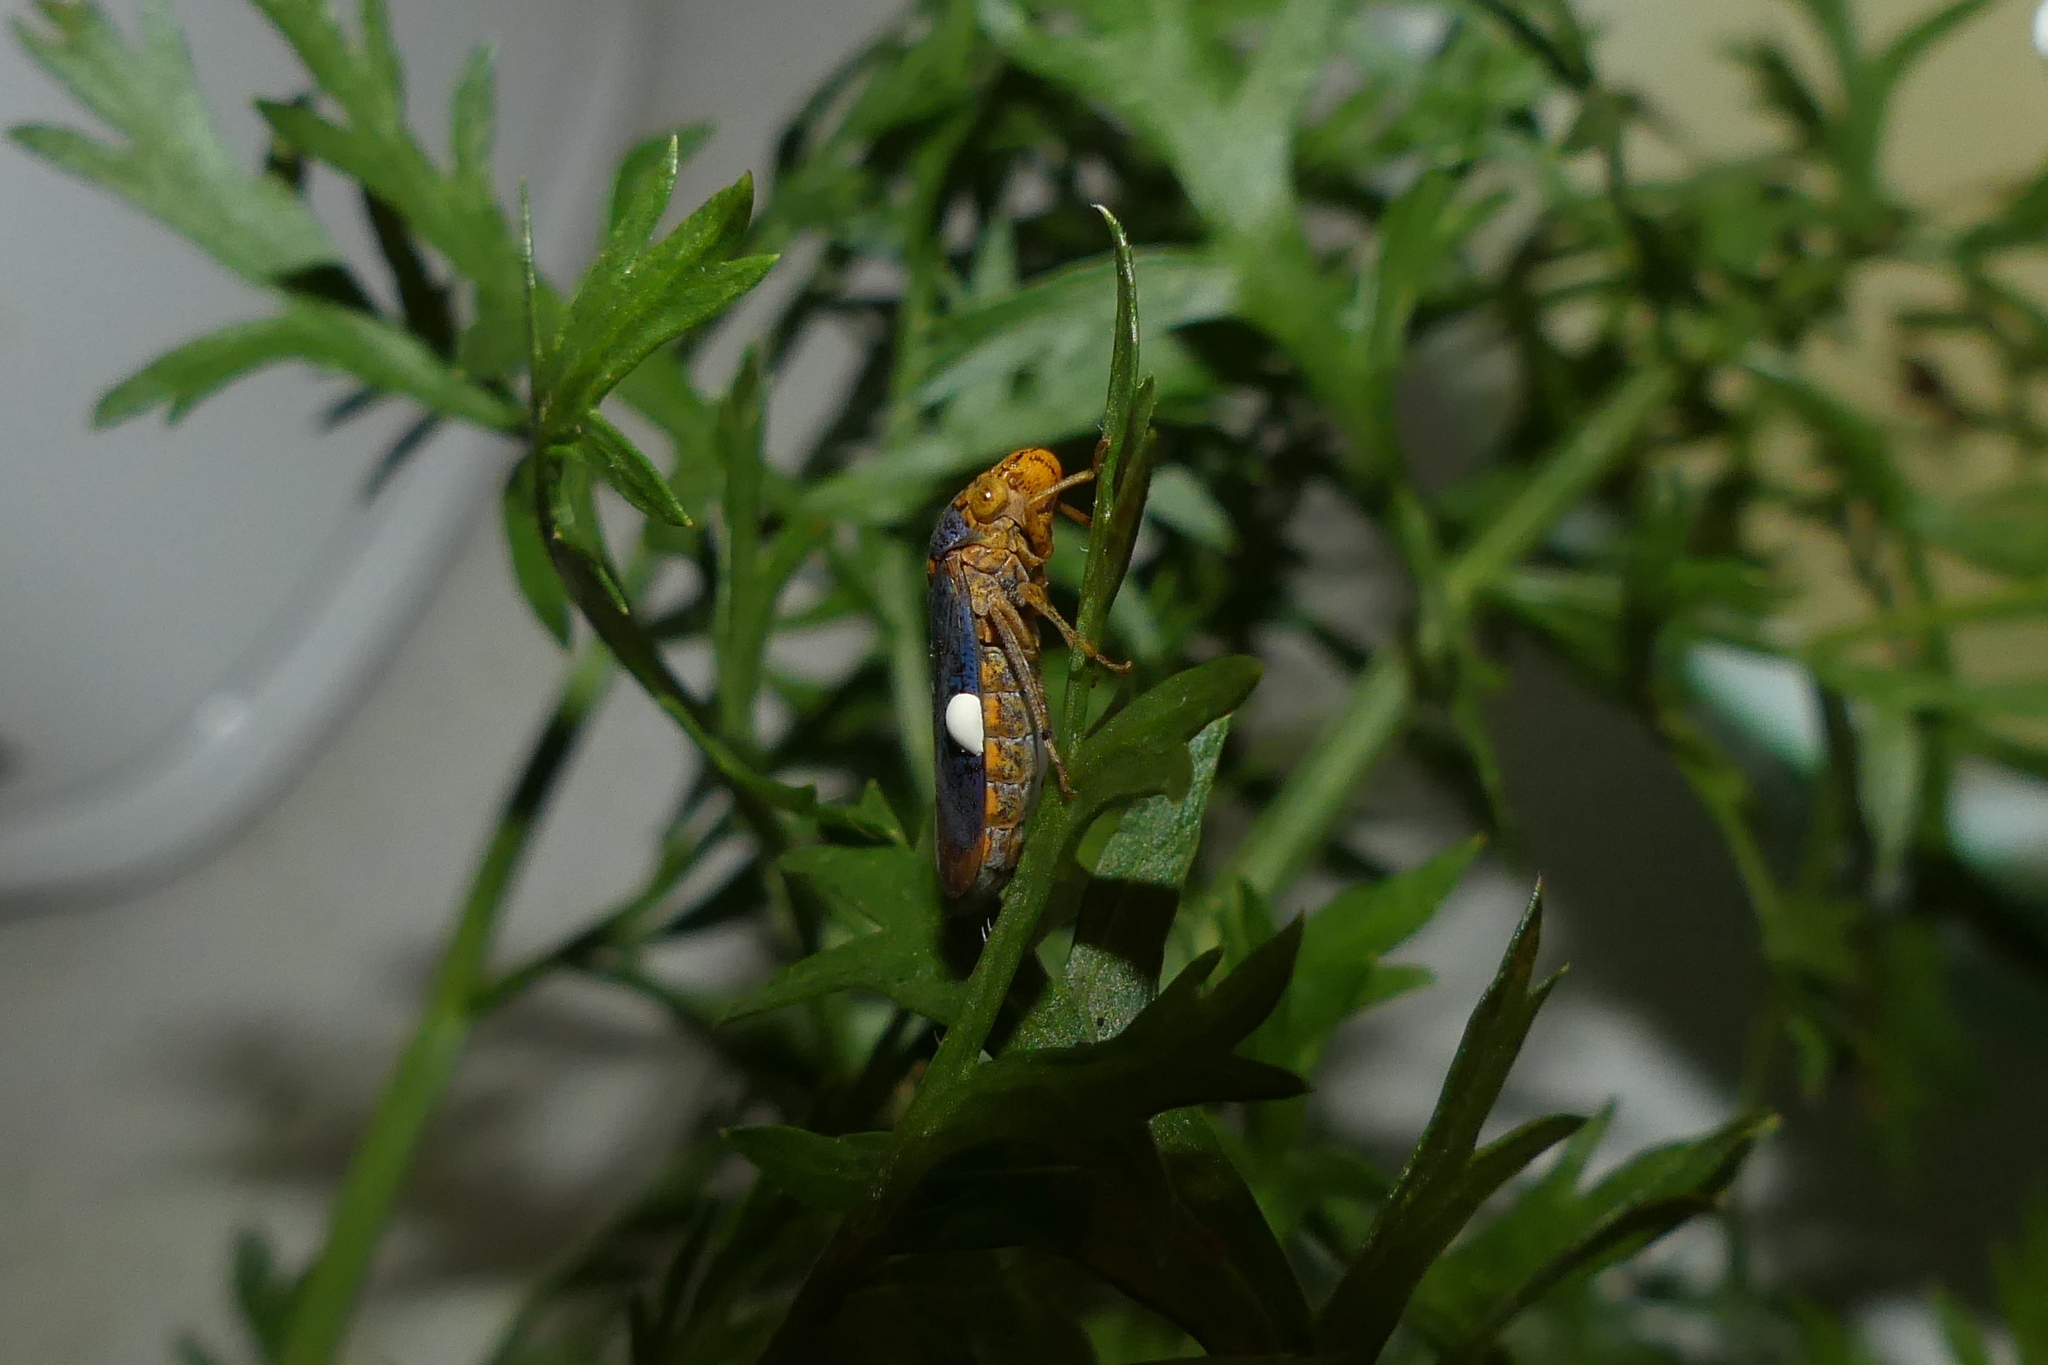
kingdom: Animalia
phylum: Arthropoda
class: Insecta
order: Hemiptera
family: Cicadellidae
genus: Oncometopia
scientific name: Oncometopia orbona
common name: Broad-headed sharpshooter
